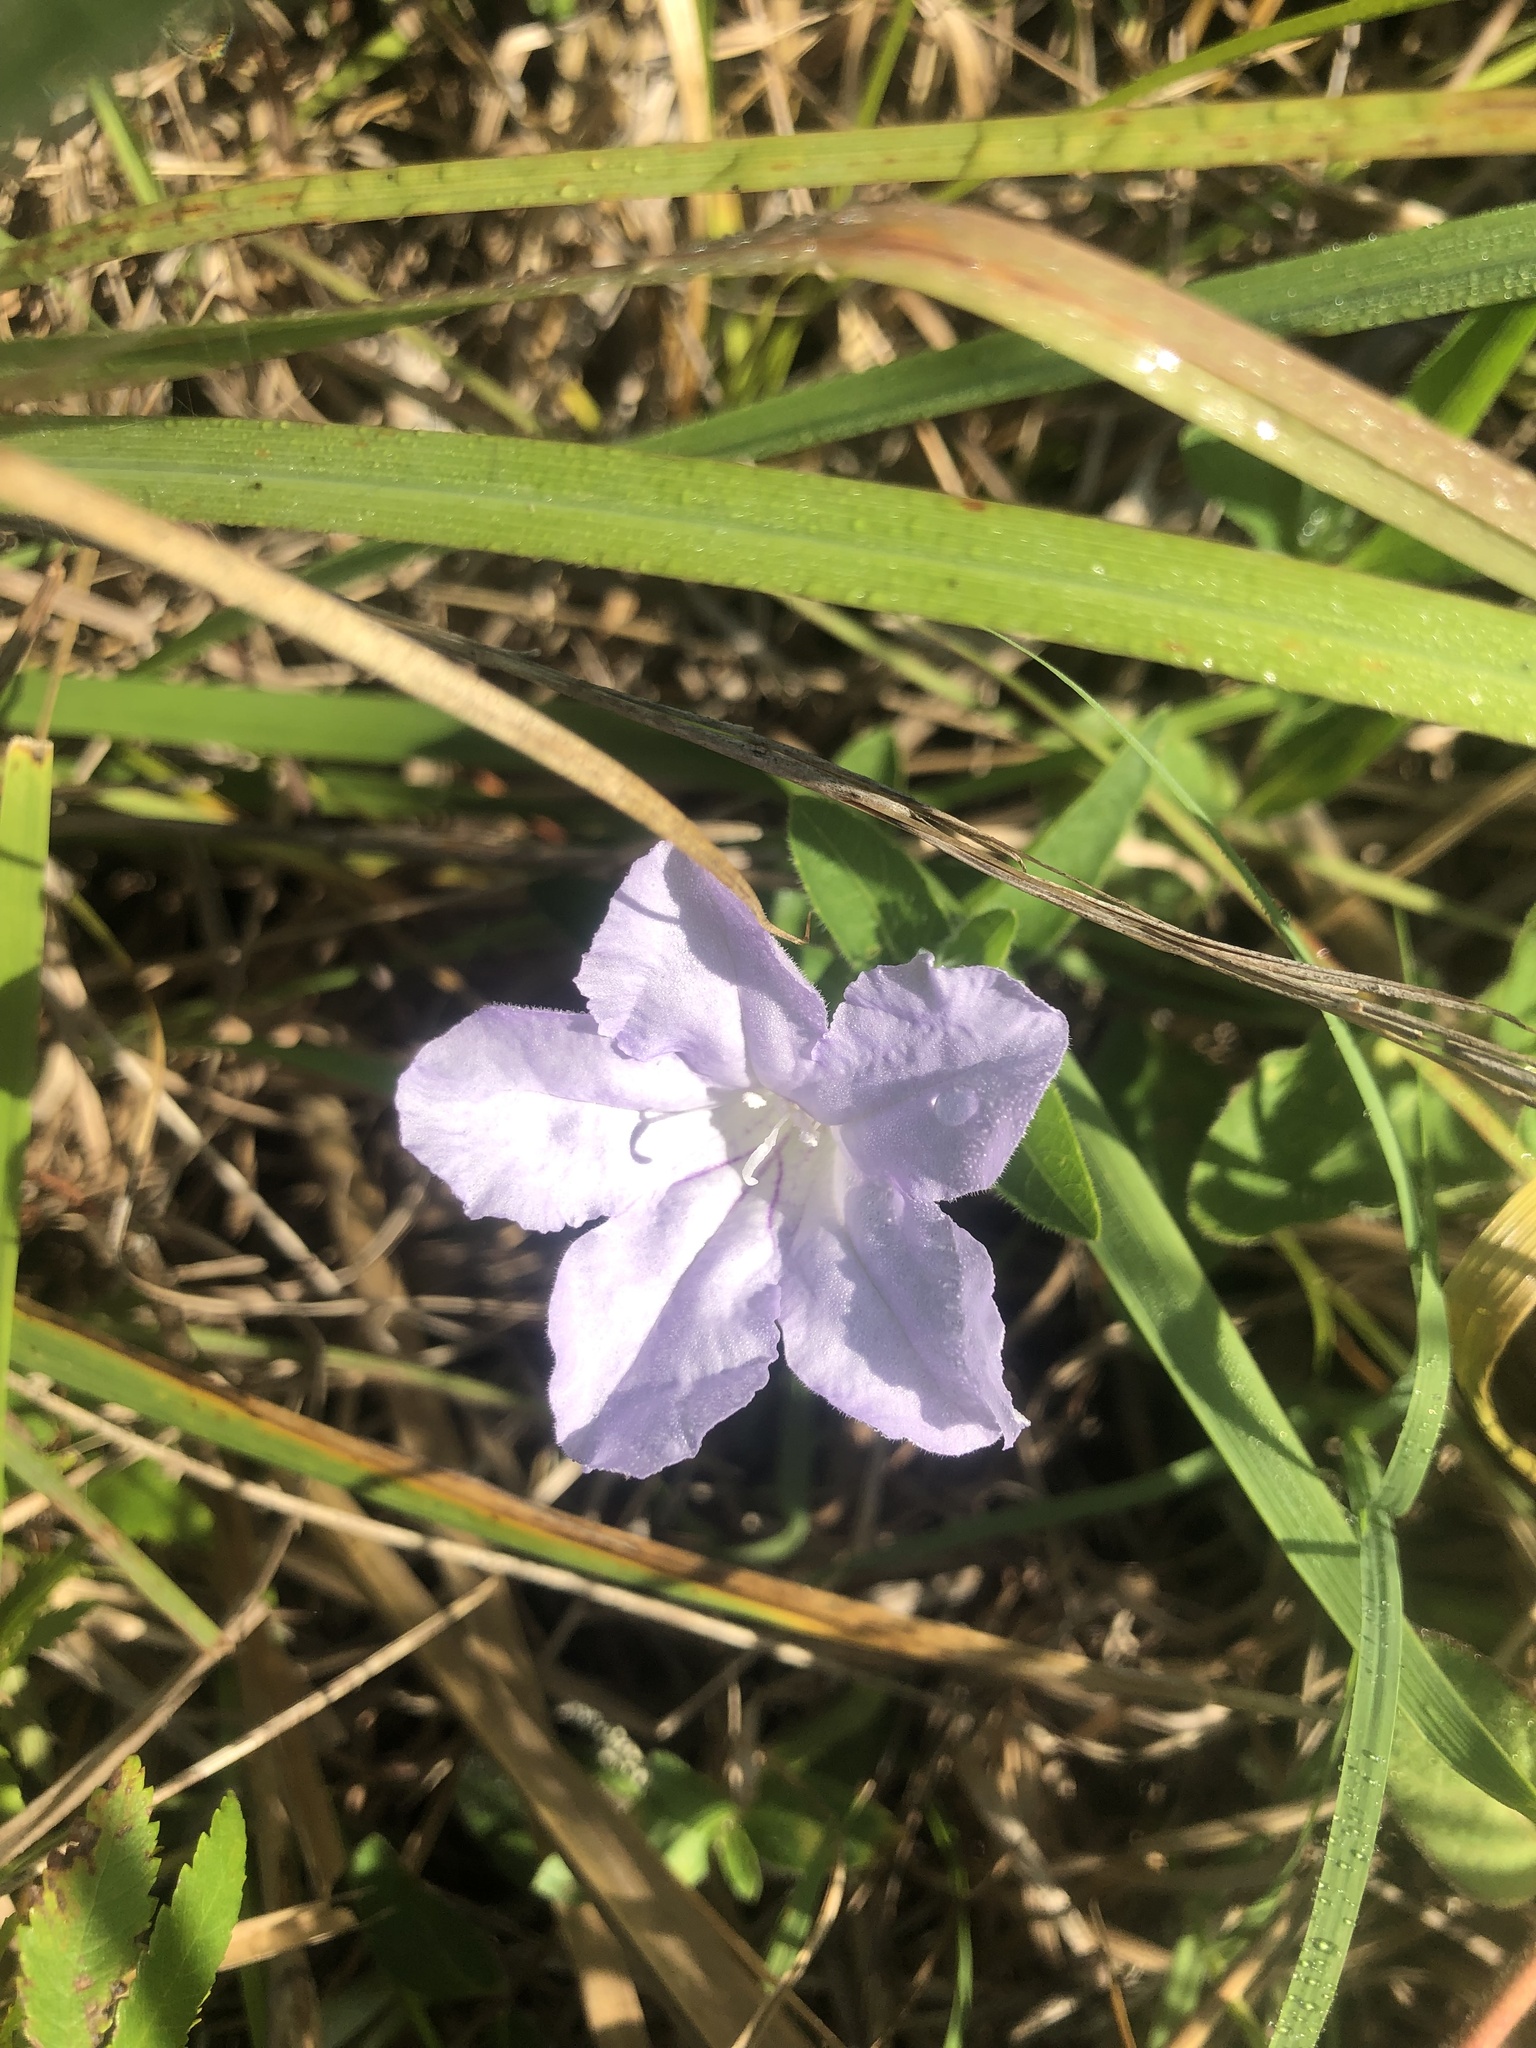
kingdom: Plantae
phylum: Tracheophyta
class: Magnoliopsida
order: Lamiales
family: Acanthaceae
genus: Ruellia
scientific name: Ruellia humilis
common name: Fringe-leaf ruellia
